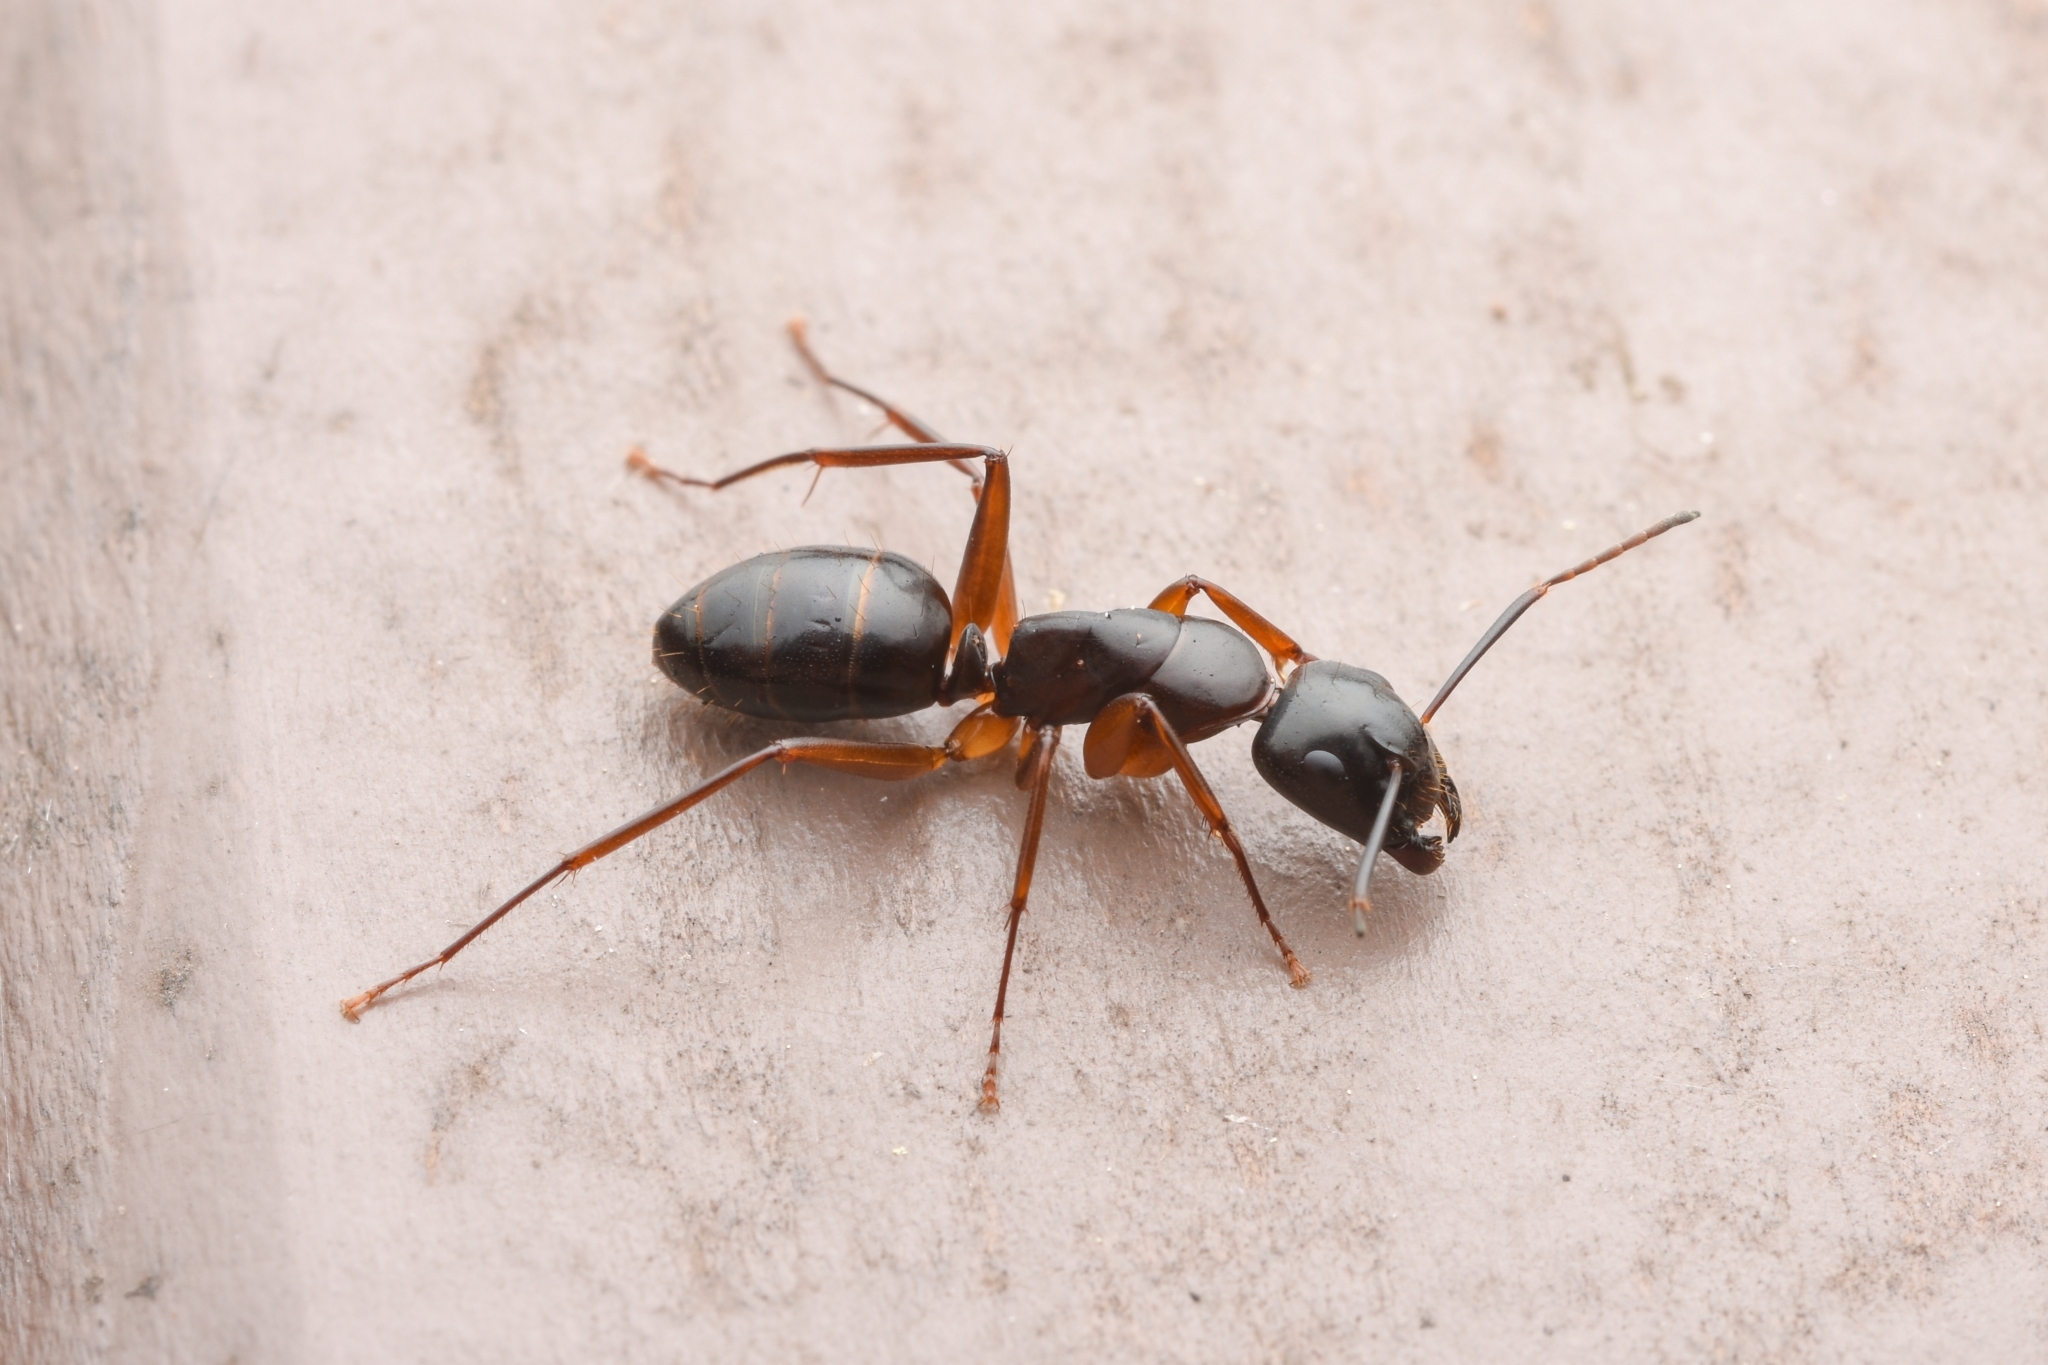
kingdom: Animalia
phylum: Arthropoda
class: Insecta
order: Hymenoptera
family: Formicidae
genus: Camponotus
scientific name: Camponotus kiusiuensis
